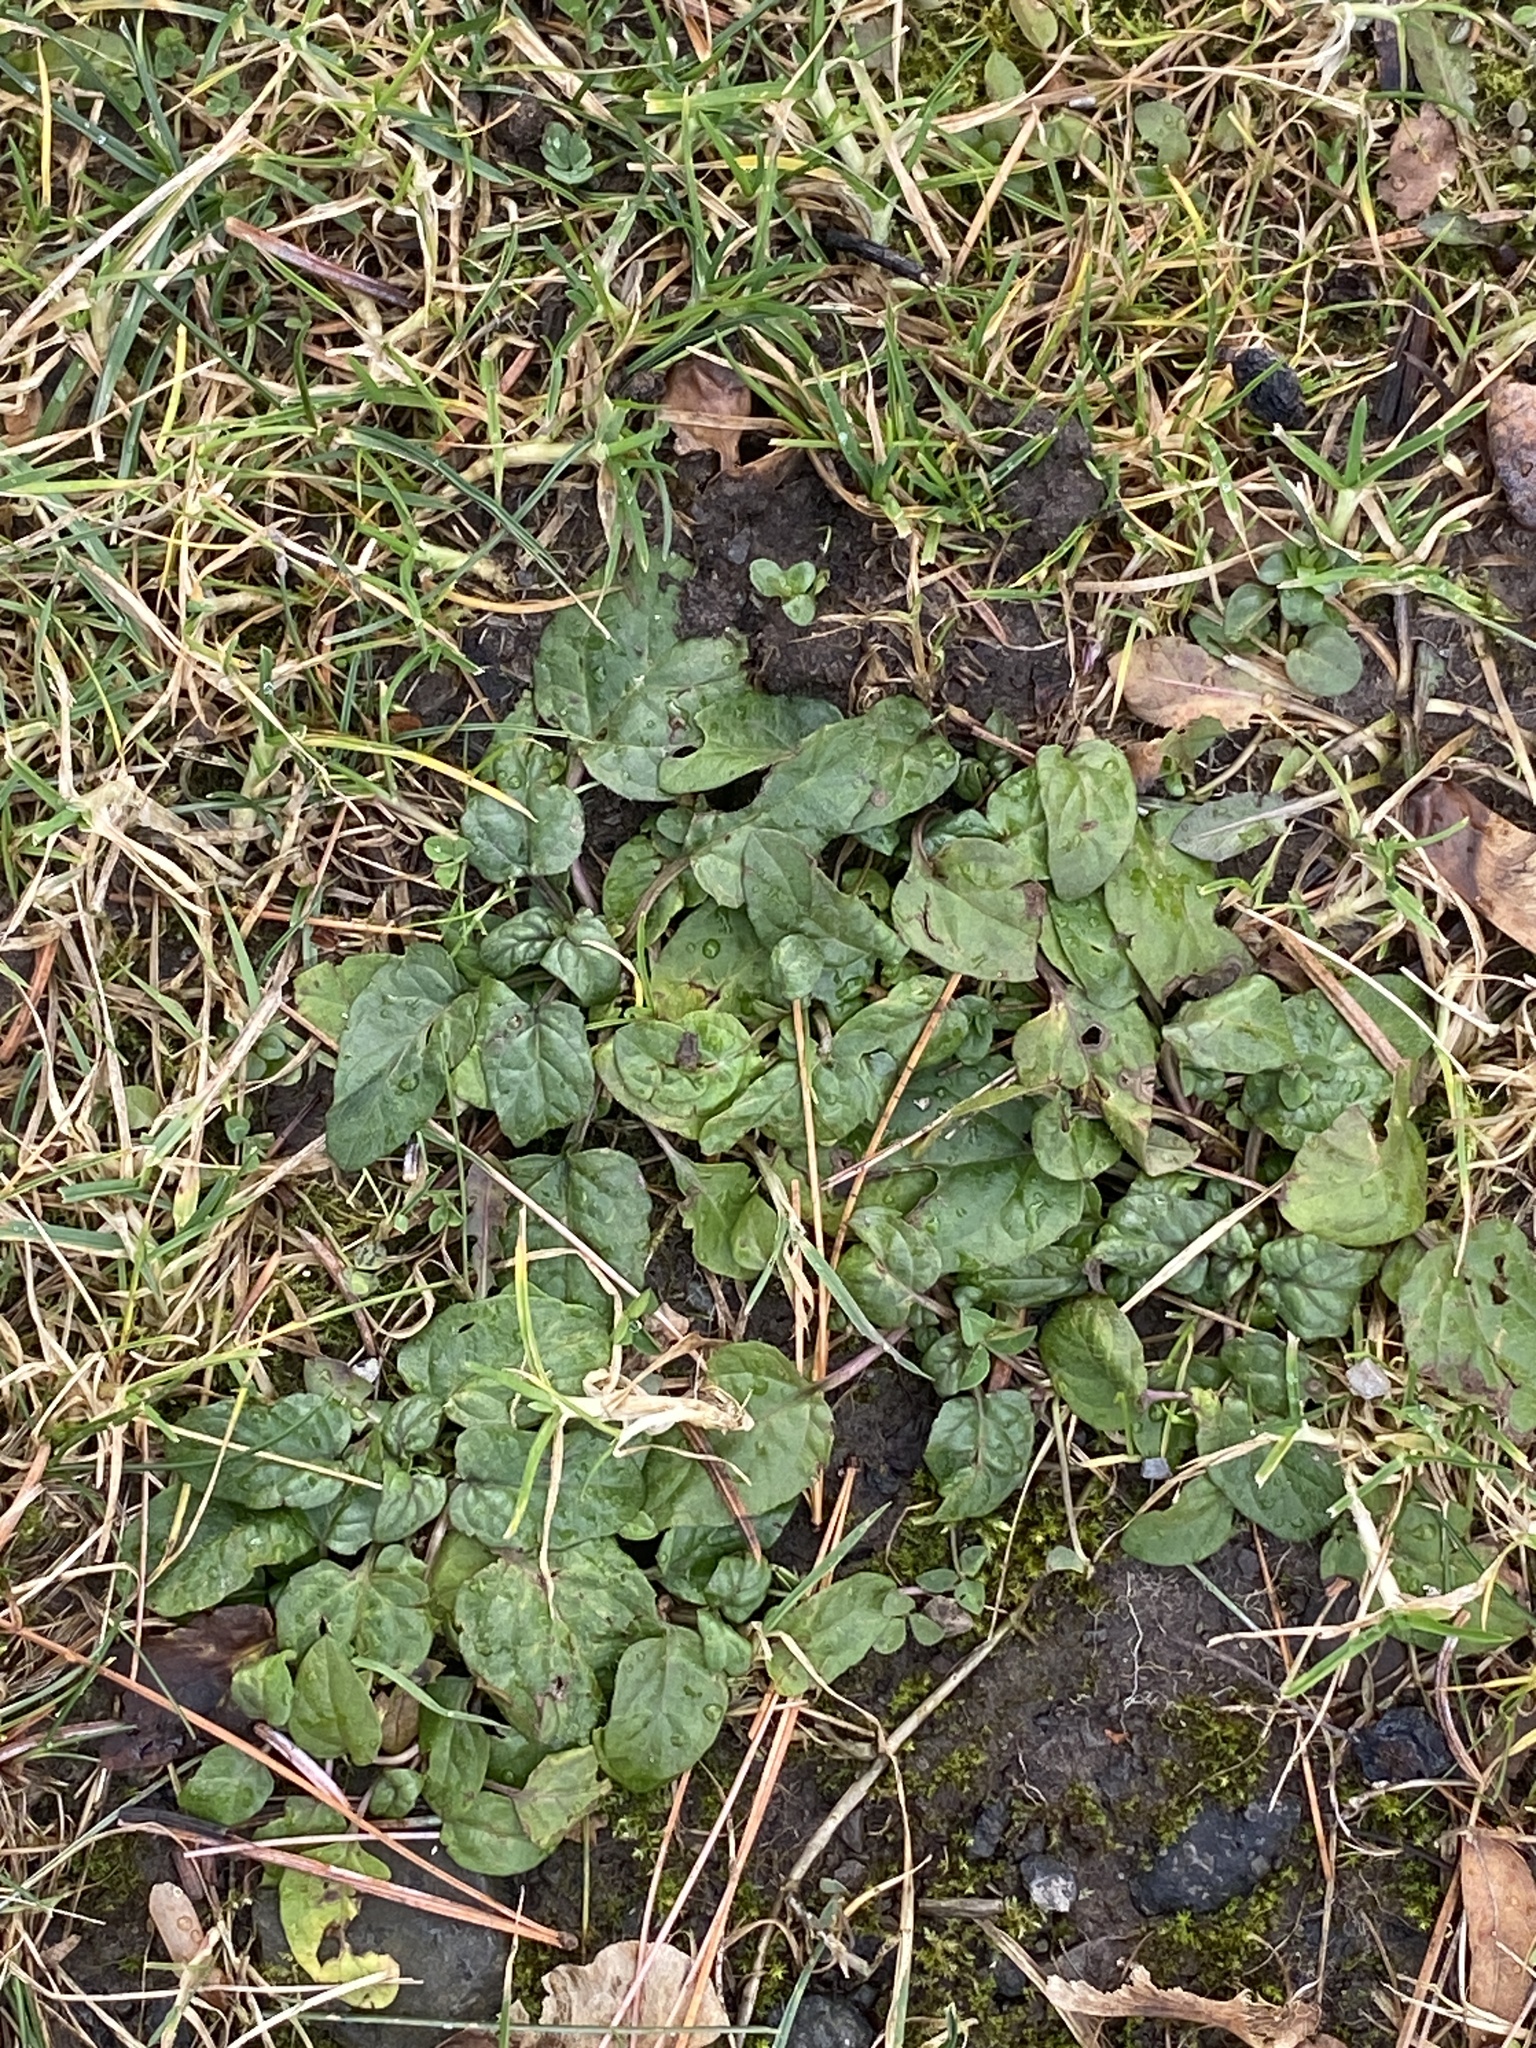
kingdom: Plantae
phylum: Tracheophyta
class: Magnoliopsida
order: Lamiales
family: Lamiaceae
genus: Prunella
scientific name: Prunella vulgaris
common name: Heal-all
